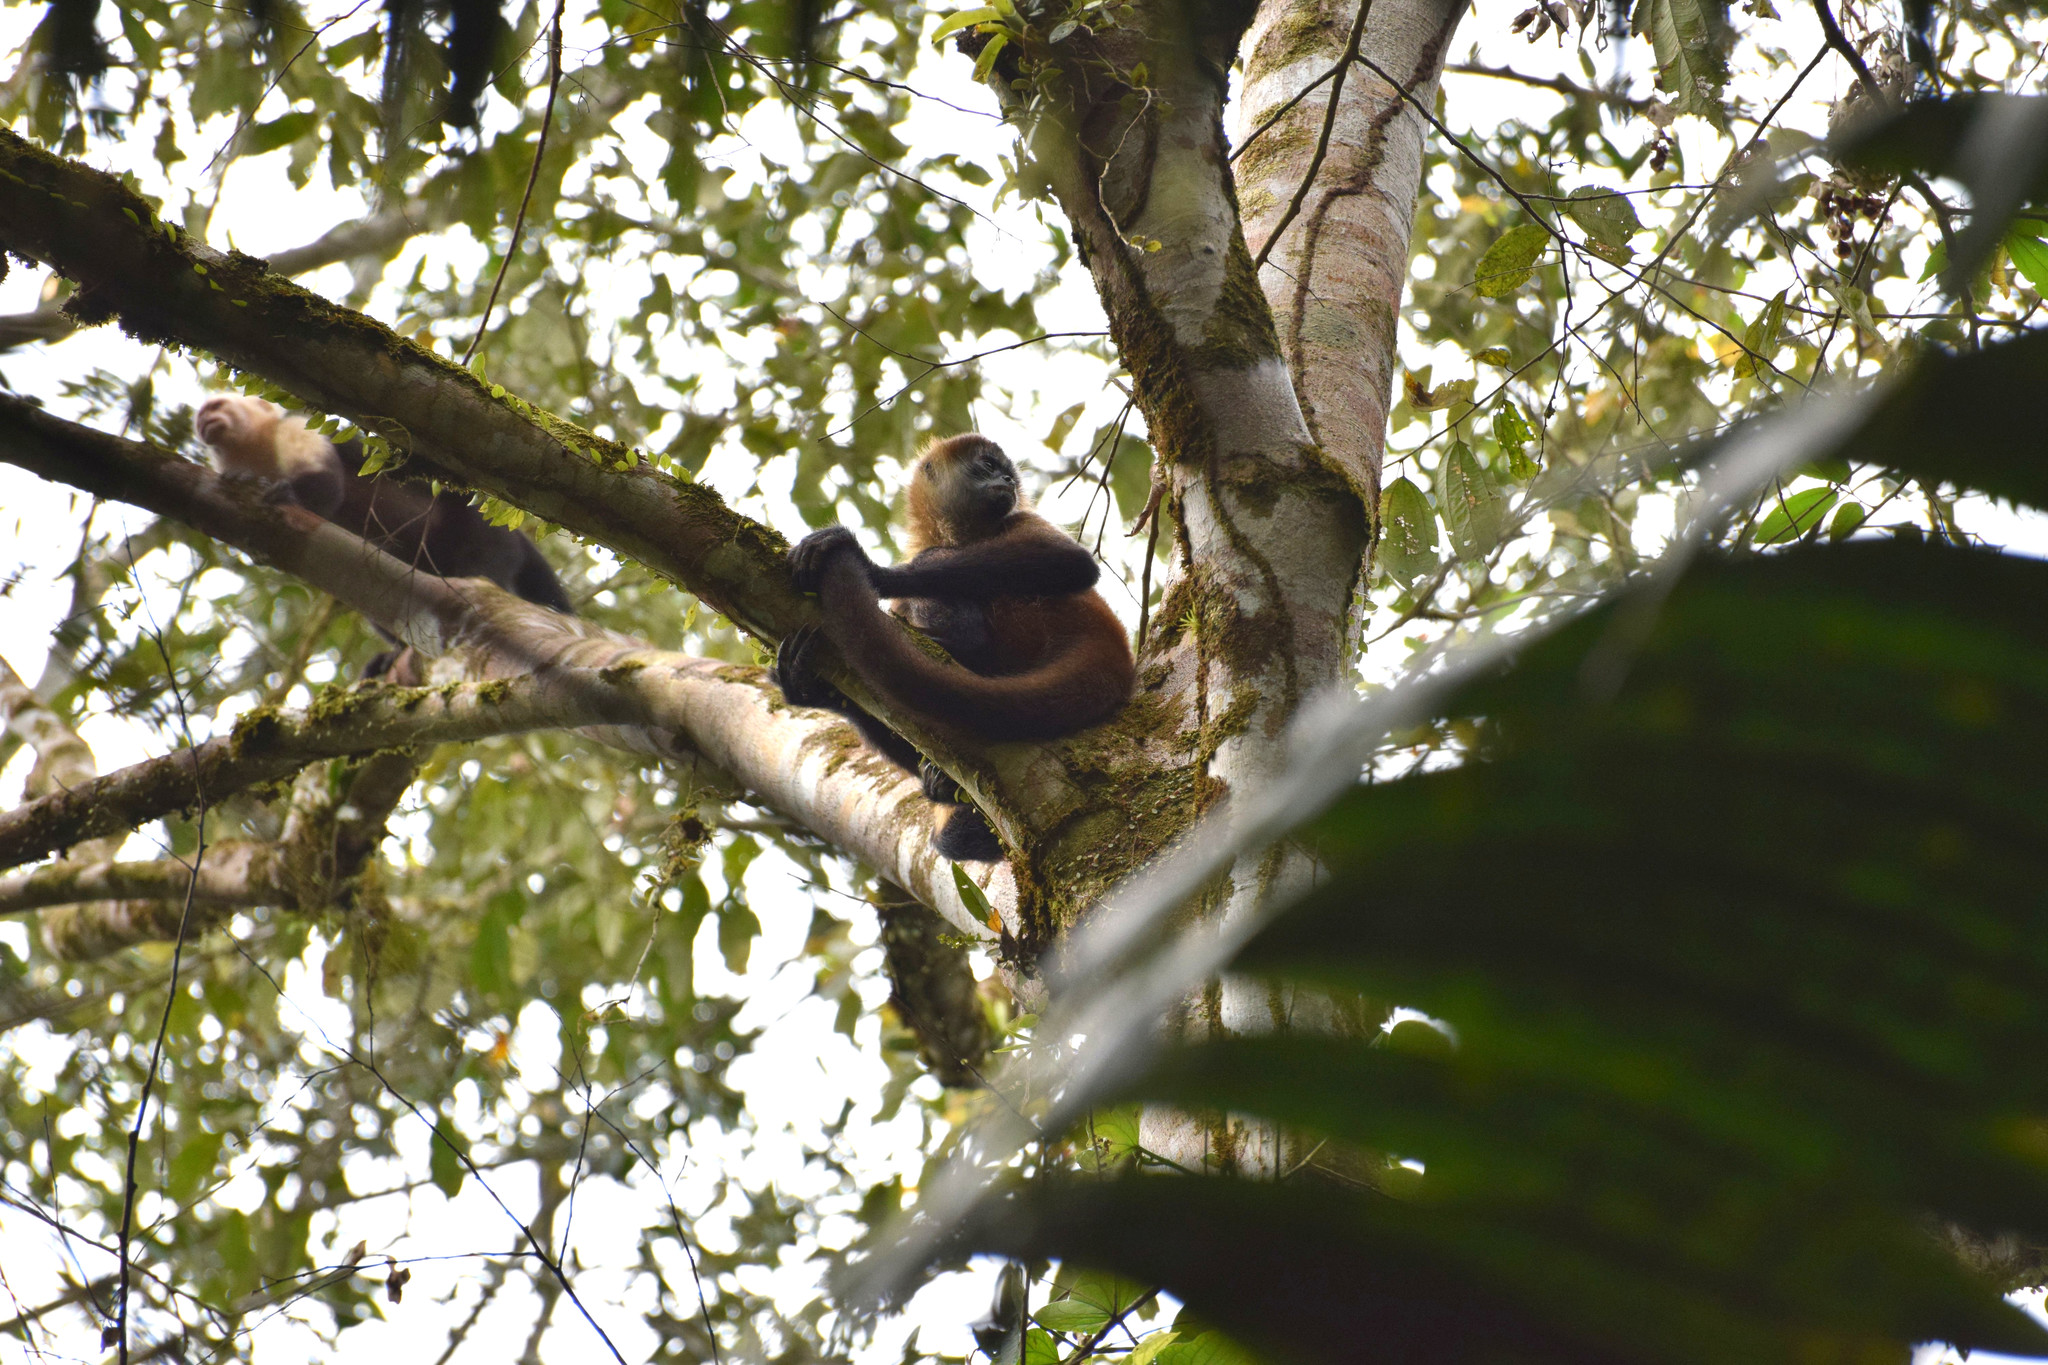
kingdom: Animalia
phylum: Chordata
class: Mammalia
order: Primates
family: Atelidae
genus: Ateles
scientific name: Ateles geoffroyi
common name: Black-handed spider monkey
